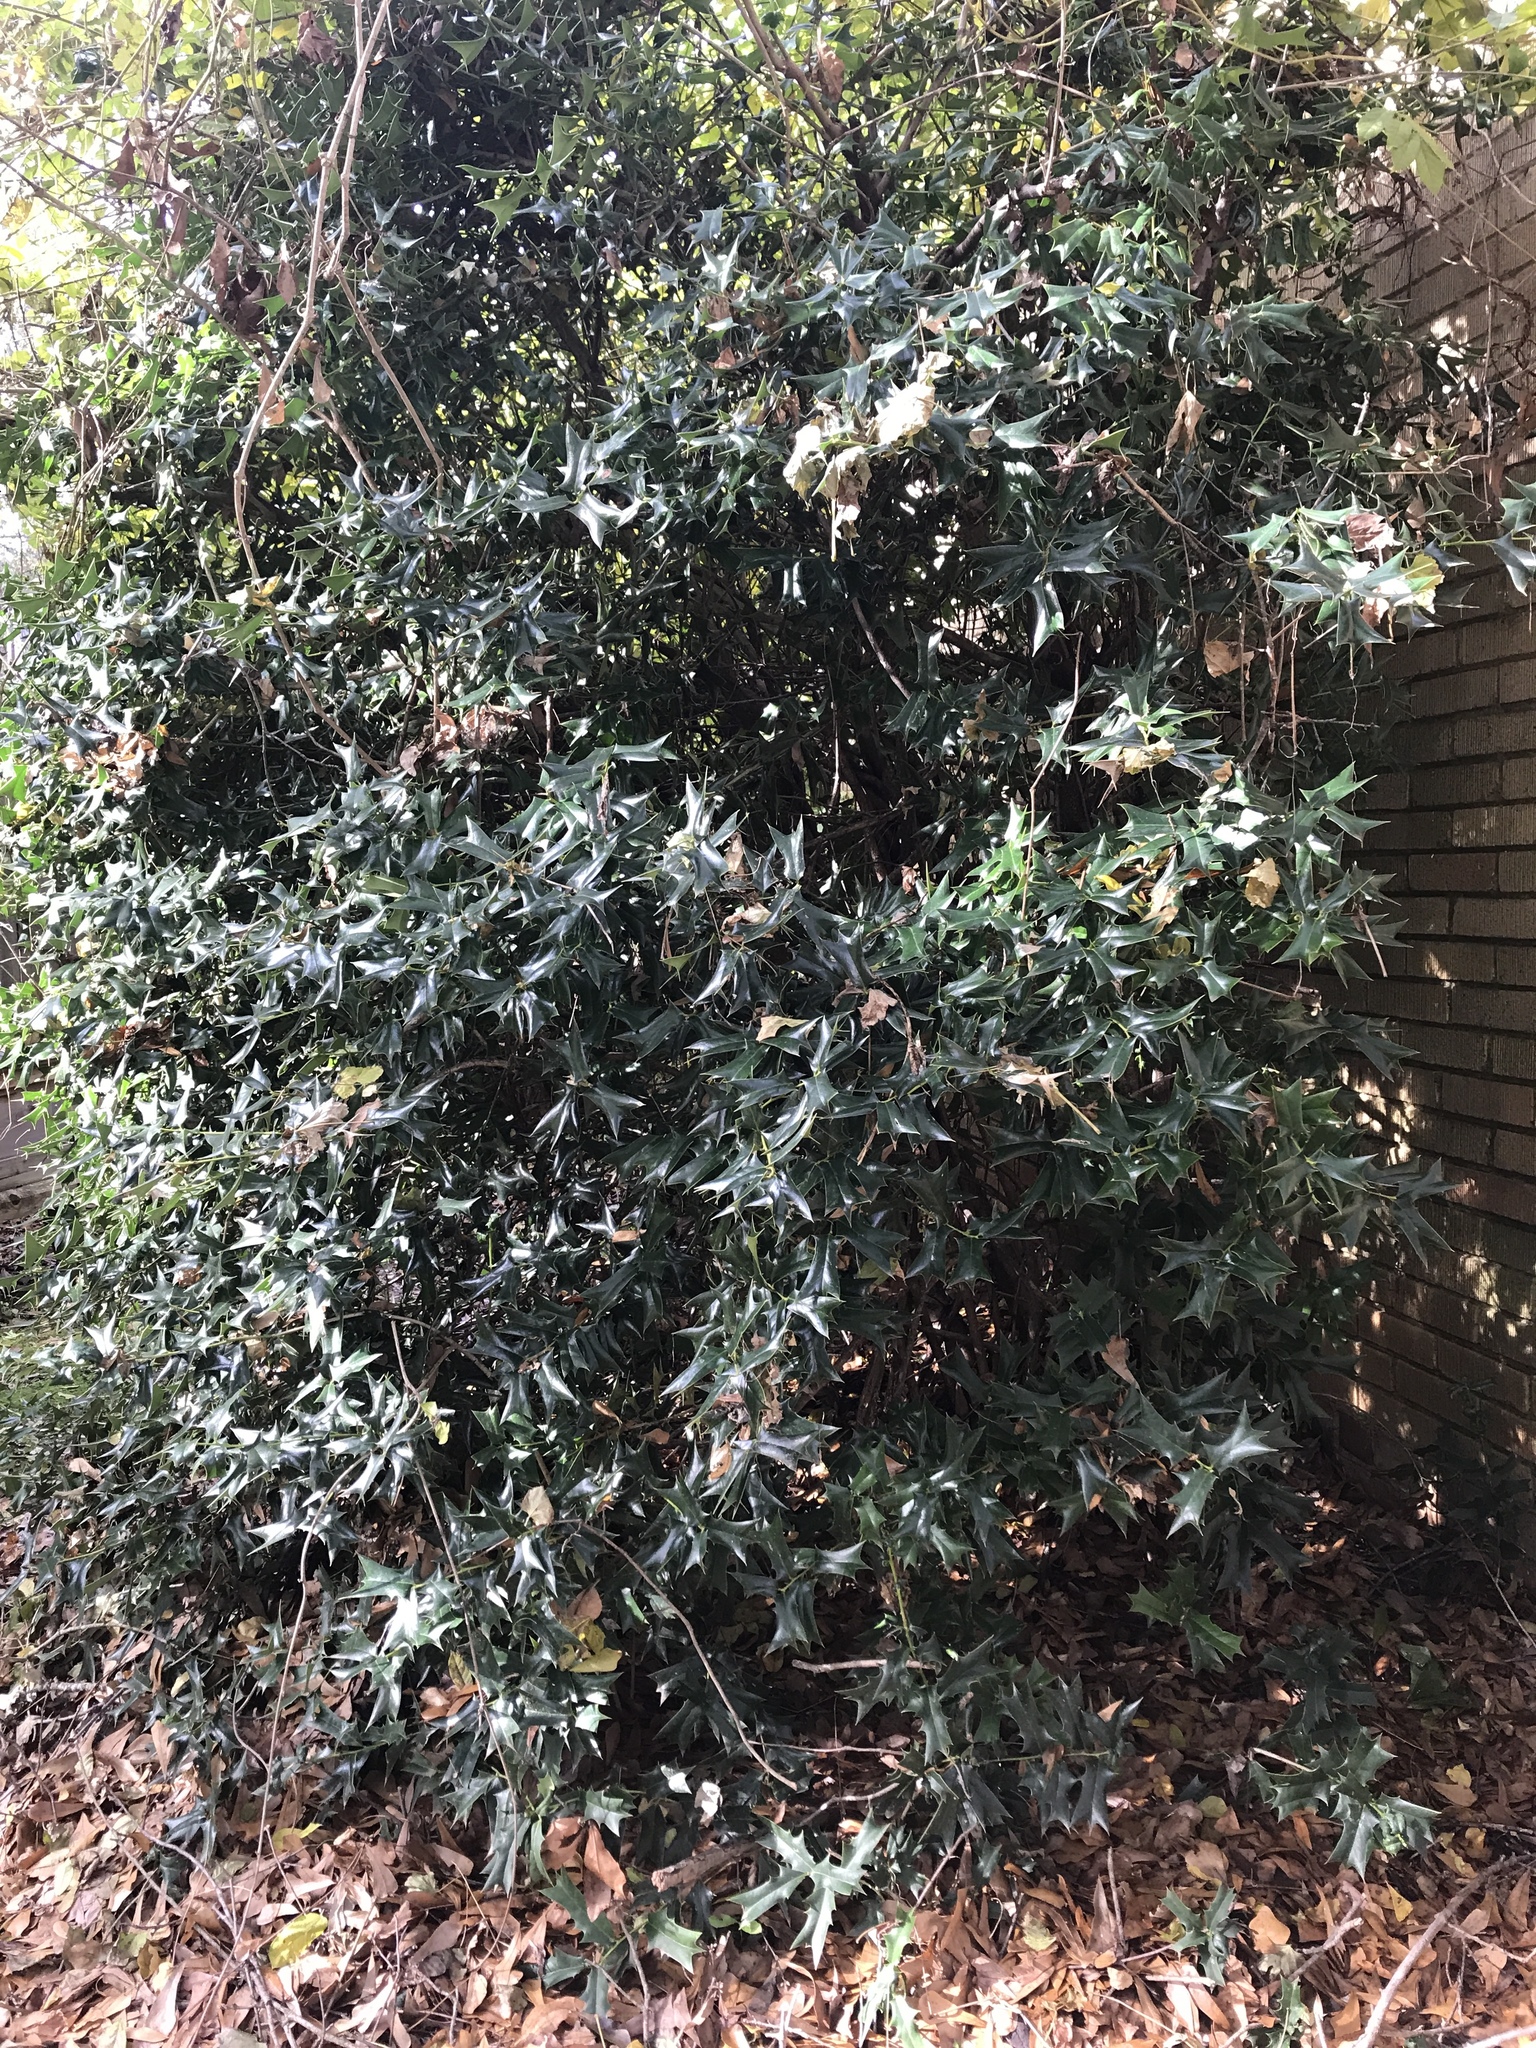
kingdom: Plantae
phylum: Tracheophyta
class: Magnoliopsida
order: Aquifoliales
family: Aquifoliaceae
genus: Ilex
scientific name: Ilex cornuta
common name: Chinese holly
